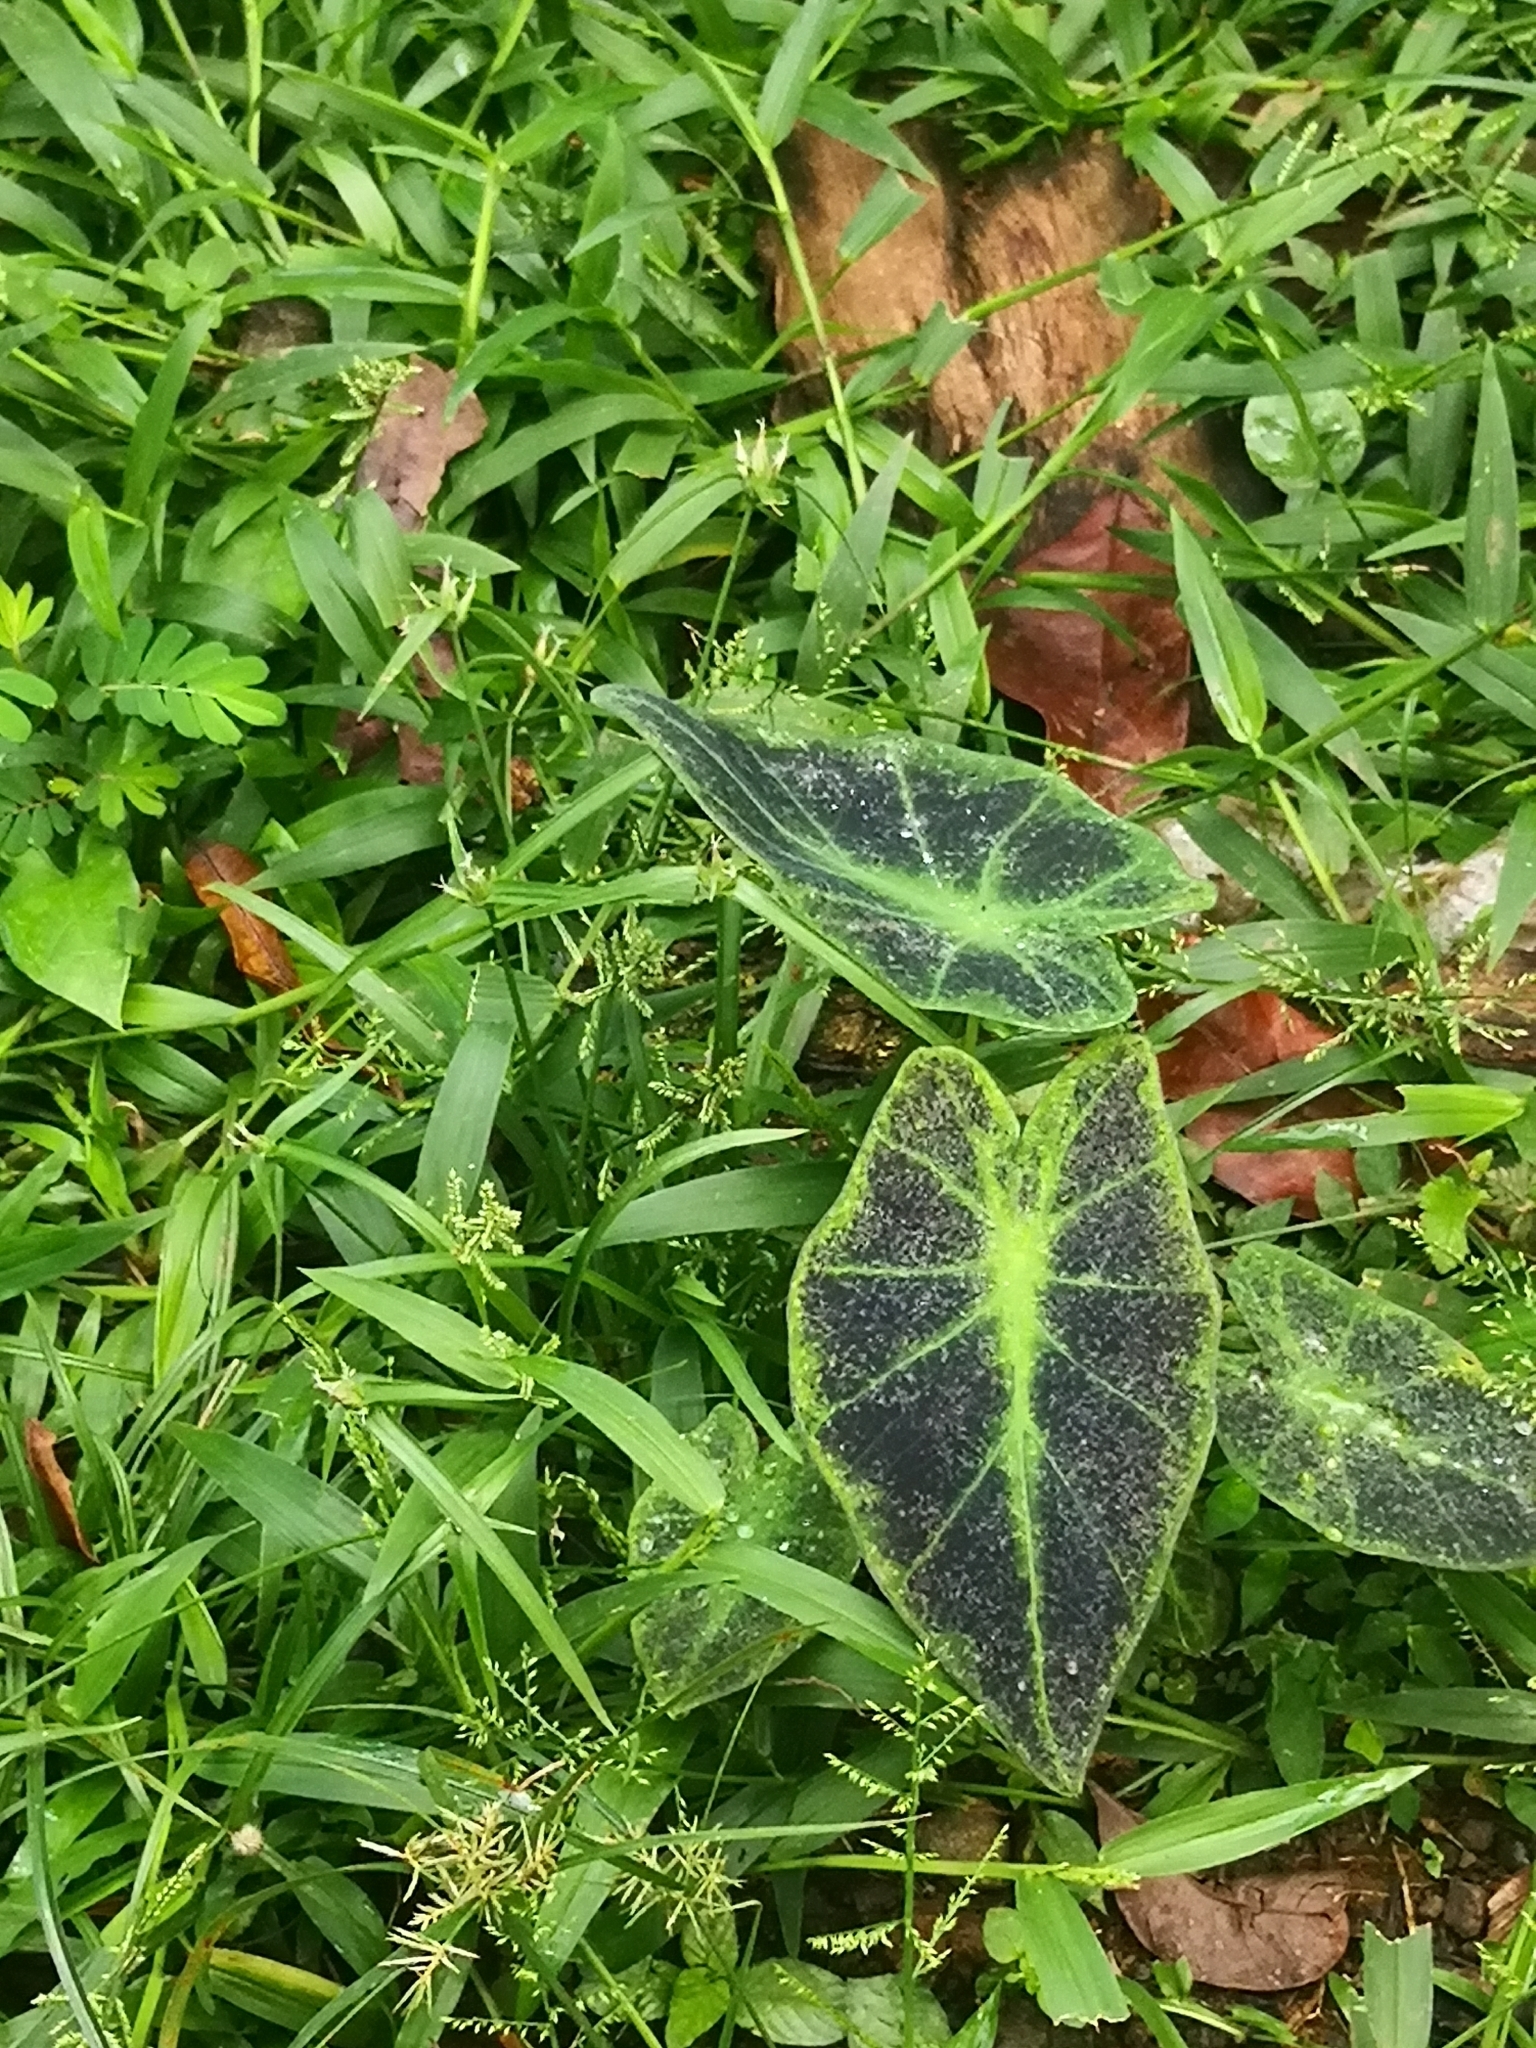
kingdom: Plantae
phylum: Tracheophyta
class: Liliopsida
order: Alismatales
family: Araceae
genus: Caladium
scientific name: Caladium bicolor
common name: Artist's pallet
